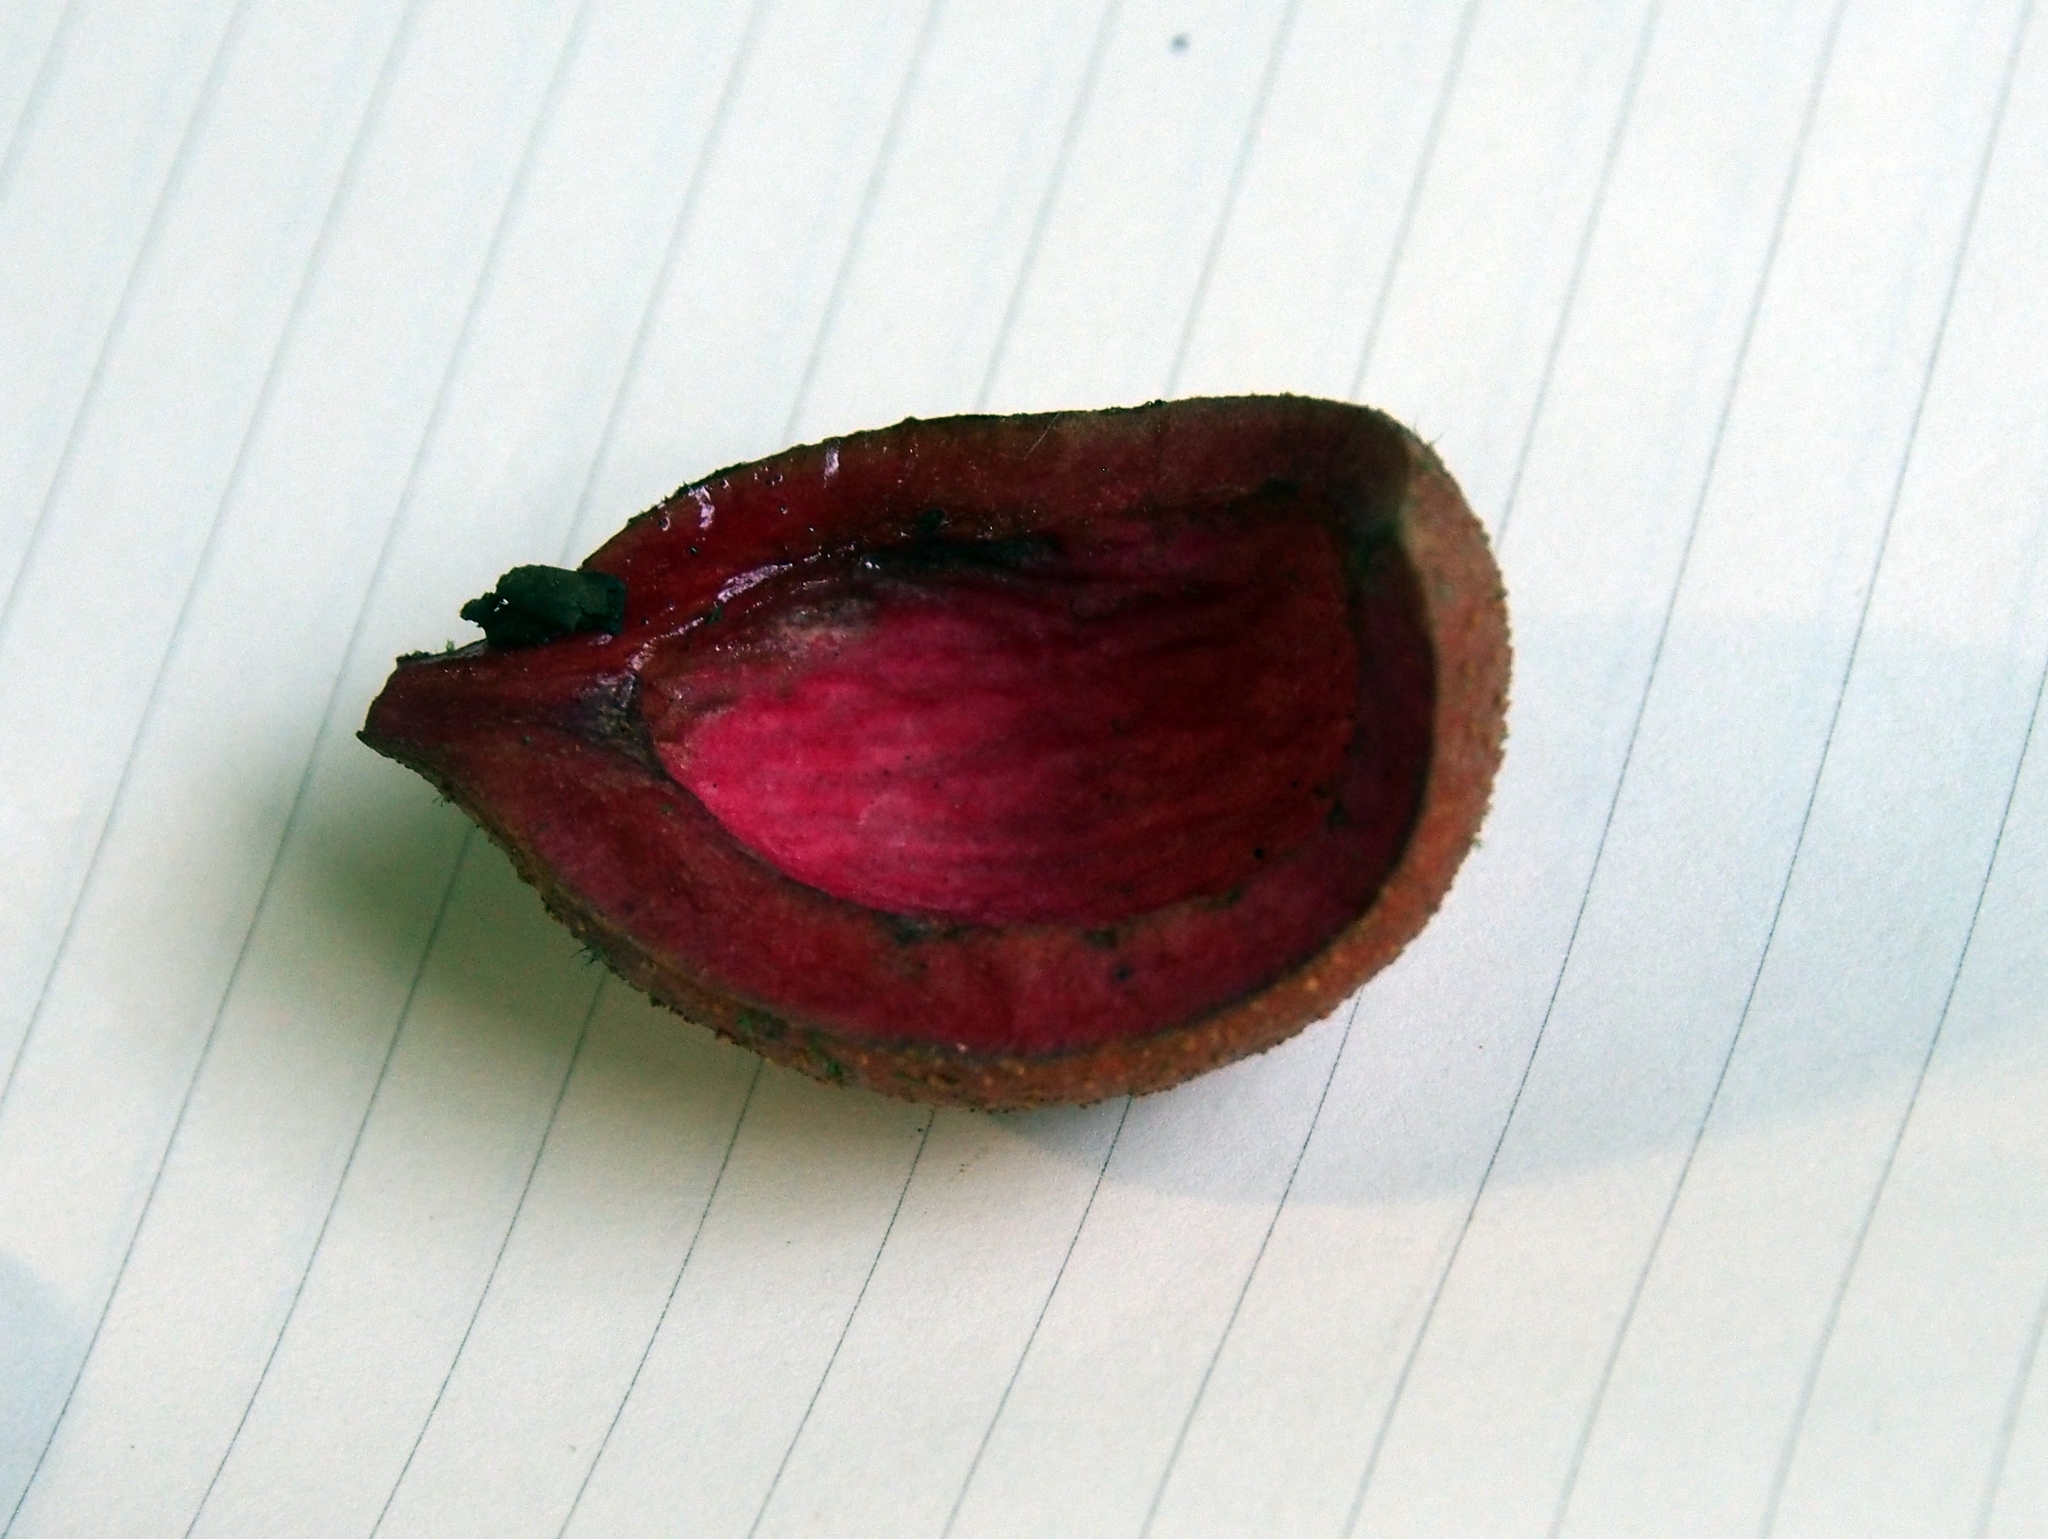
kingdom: Plantae
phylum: Tracheophyta
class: Magnoliopsida
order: Sapindales
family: Burseraceae
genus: Protium
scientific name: Protium pittieri
